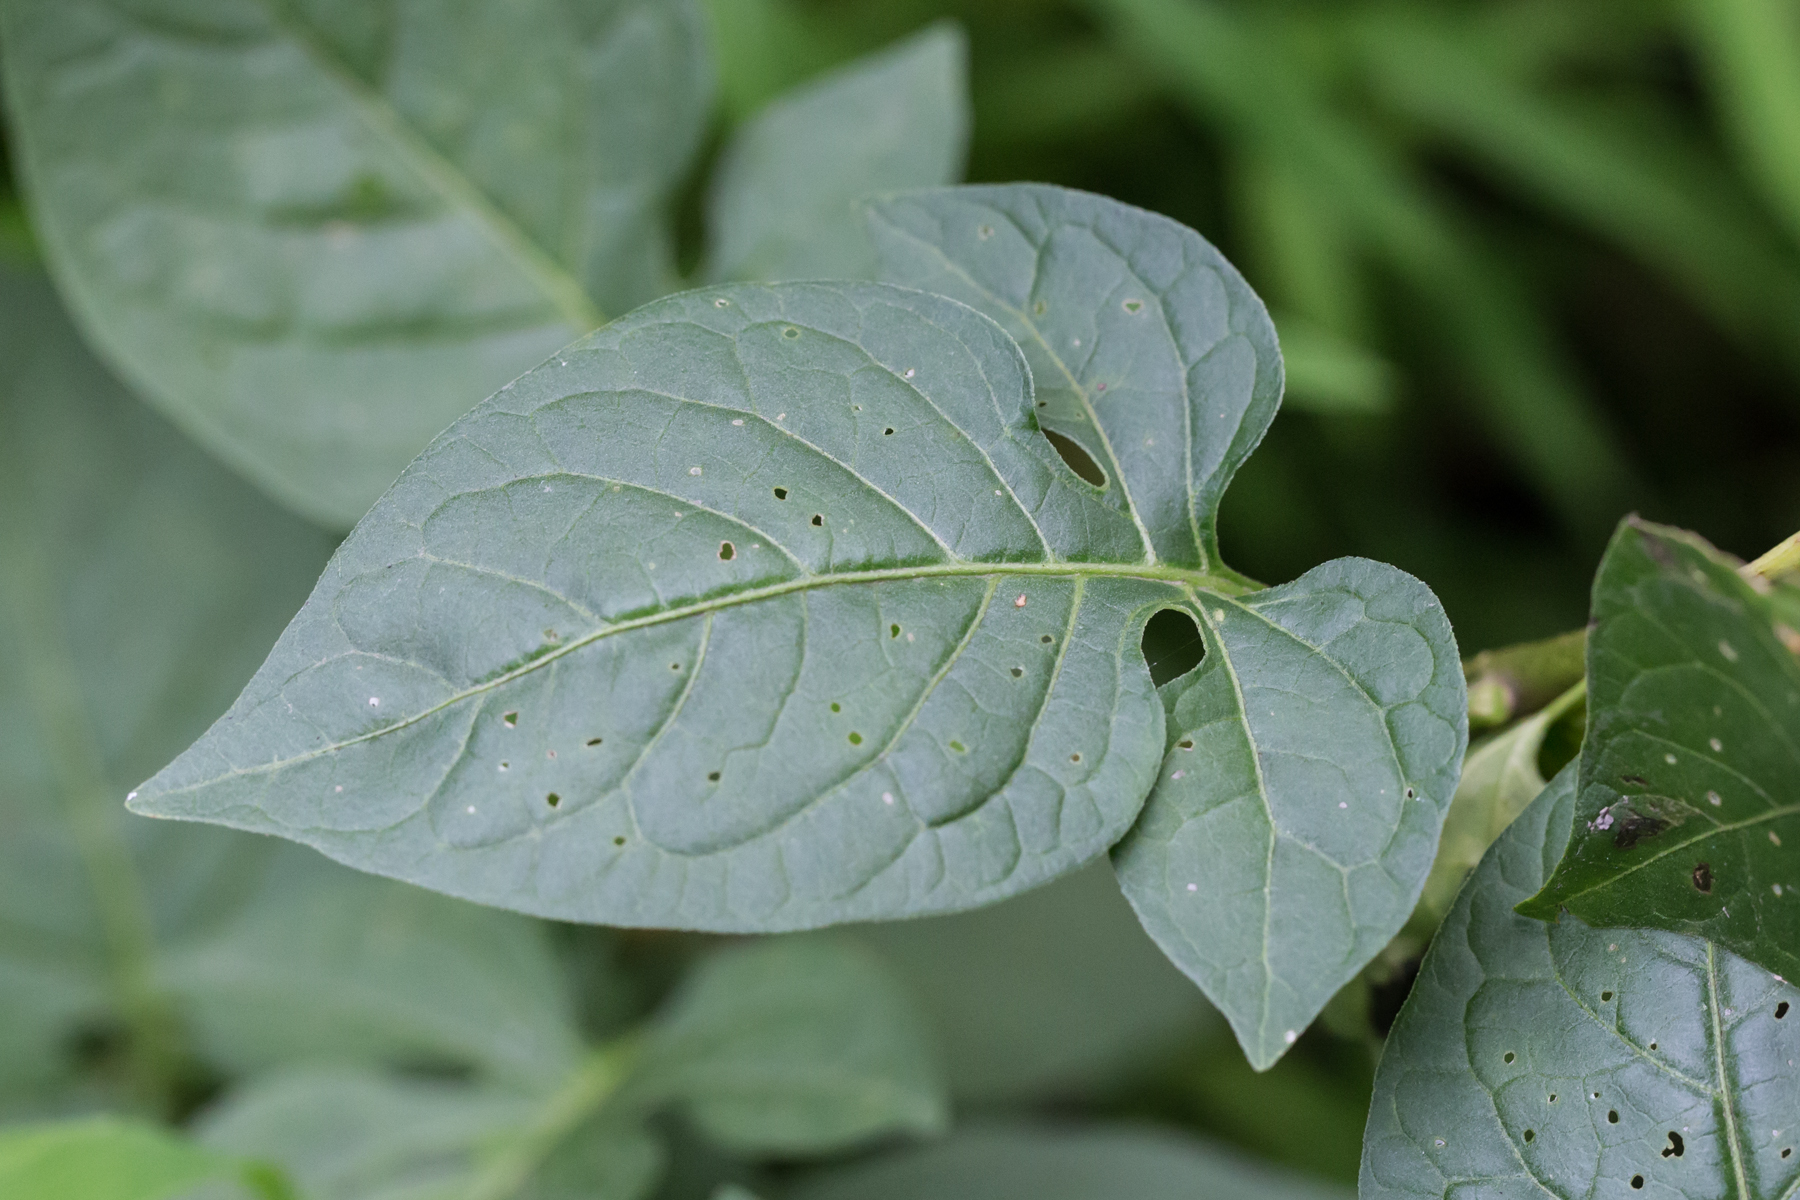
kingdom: Plantae
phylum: Tracheophyta
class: Magnoliopsida
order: Solanales
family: Solanaceae
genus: Solanum
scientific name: Solanum dulcamara
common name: Climbing nightshade
